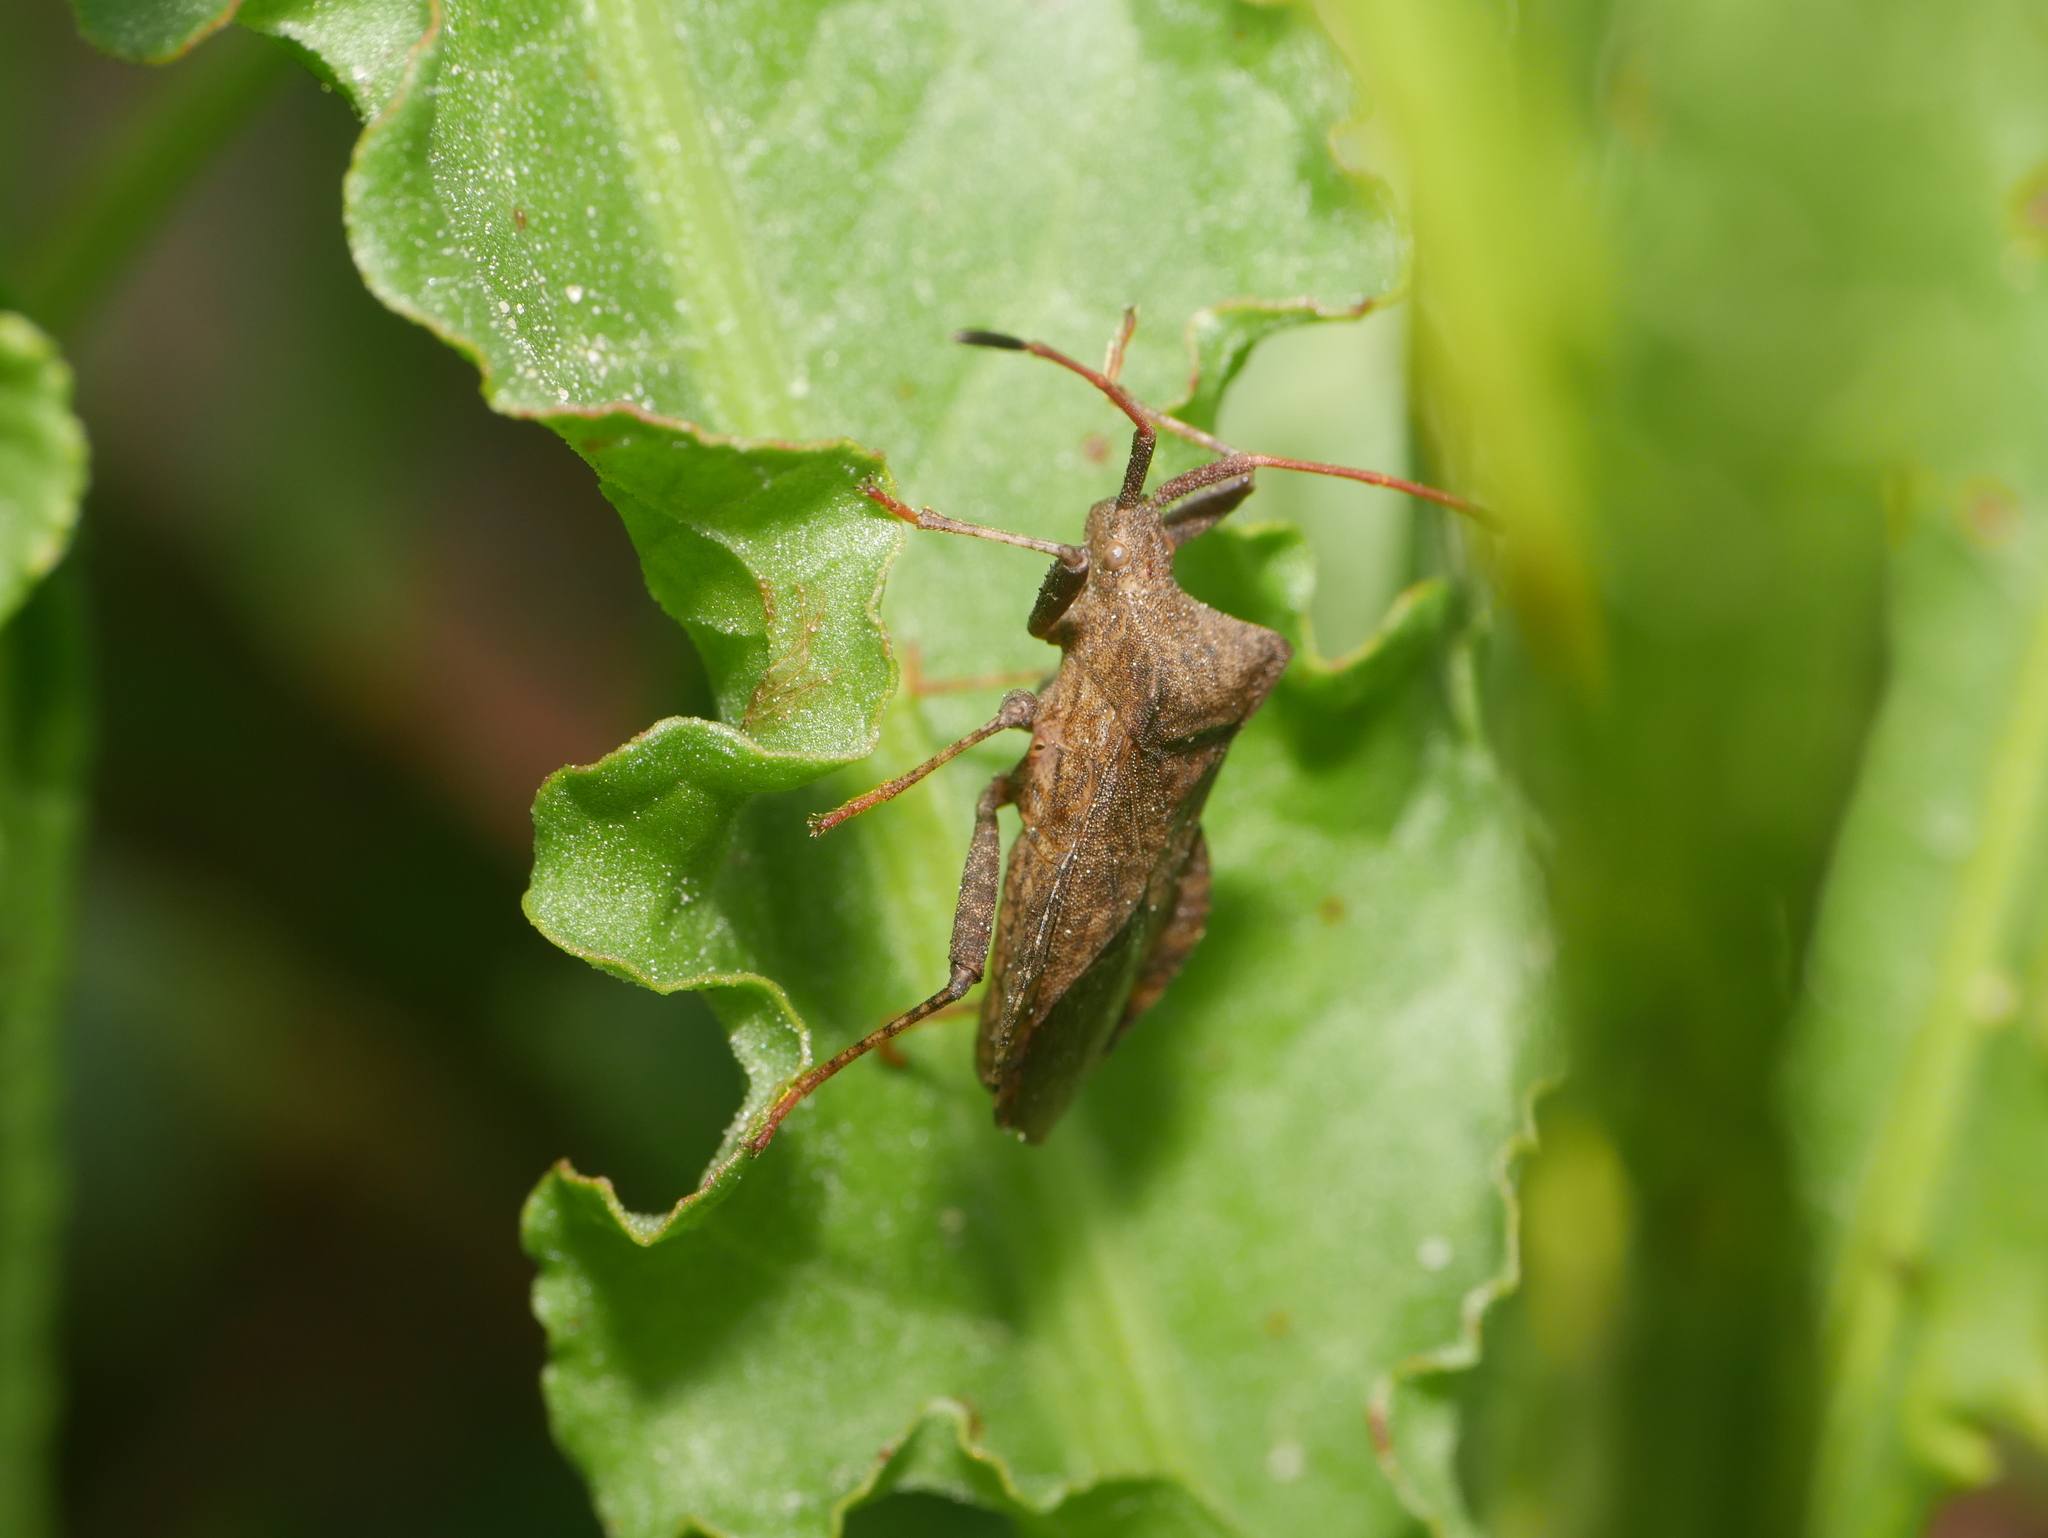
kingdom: Animalia
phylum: Arthropoda
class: Insecta
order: Hemiptera
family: Coreidae
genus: Coreus
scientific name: Coreus marginatus
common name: Dock bug
